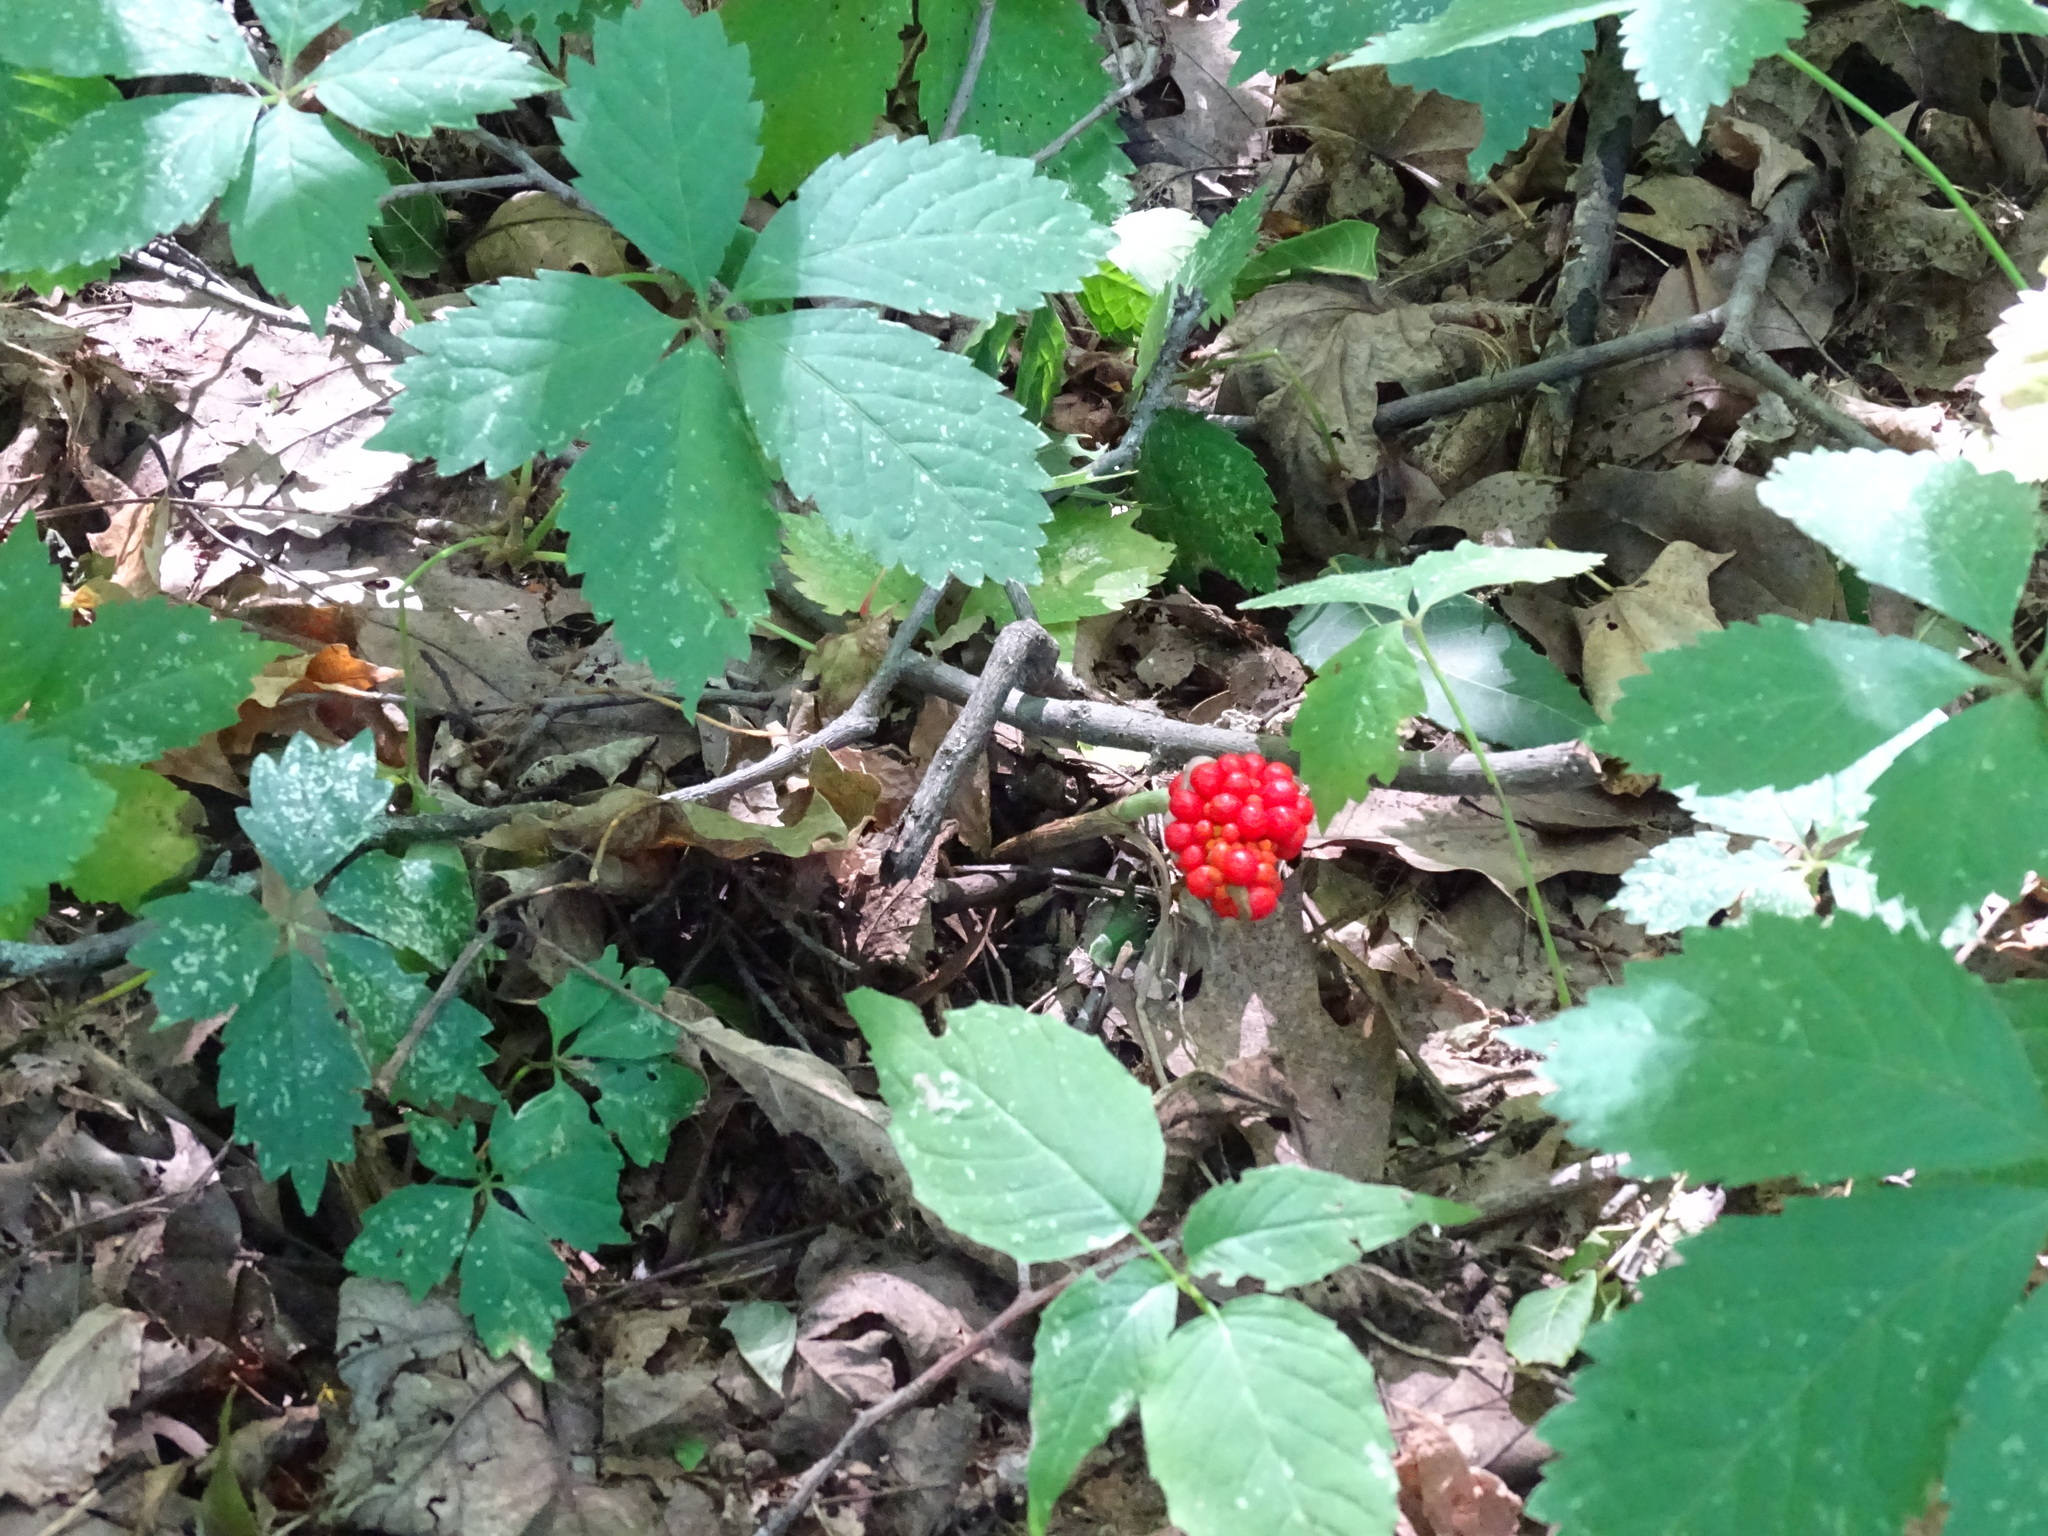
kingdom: Plantae
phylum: Tracheophyta
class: Liliopsida
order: Alismatales
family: Araceae
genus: Arisaema
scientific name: Arisaema triphyllum
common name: Jack-in-the-pulpit
